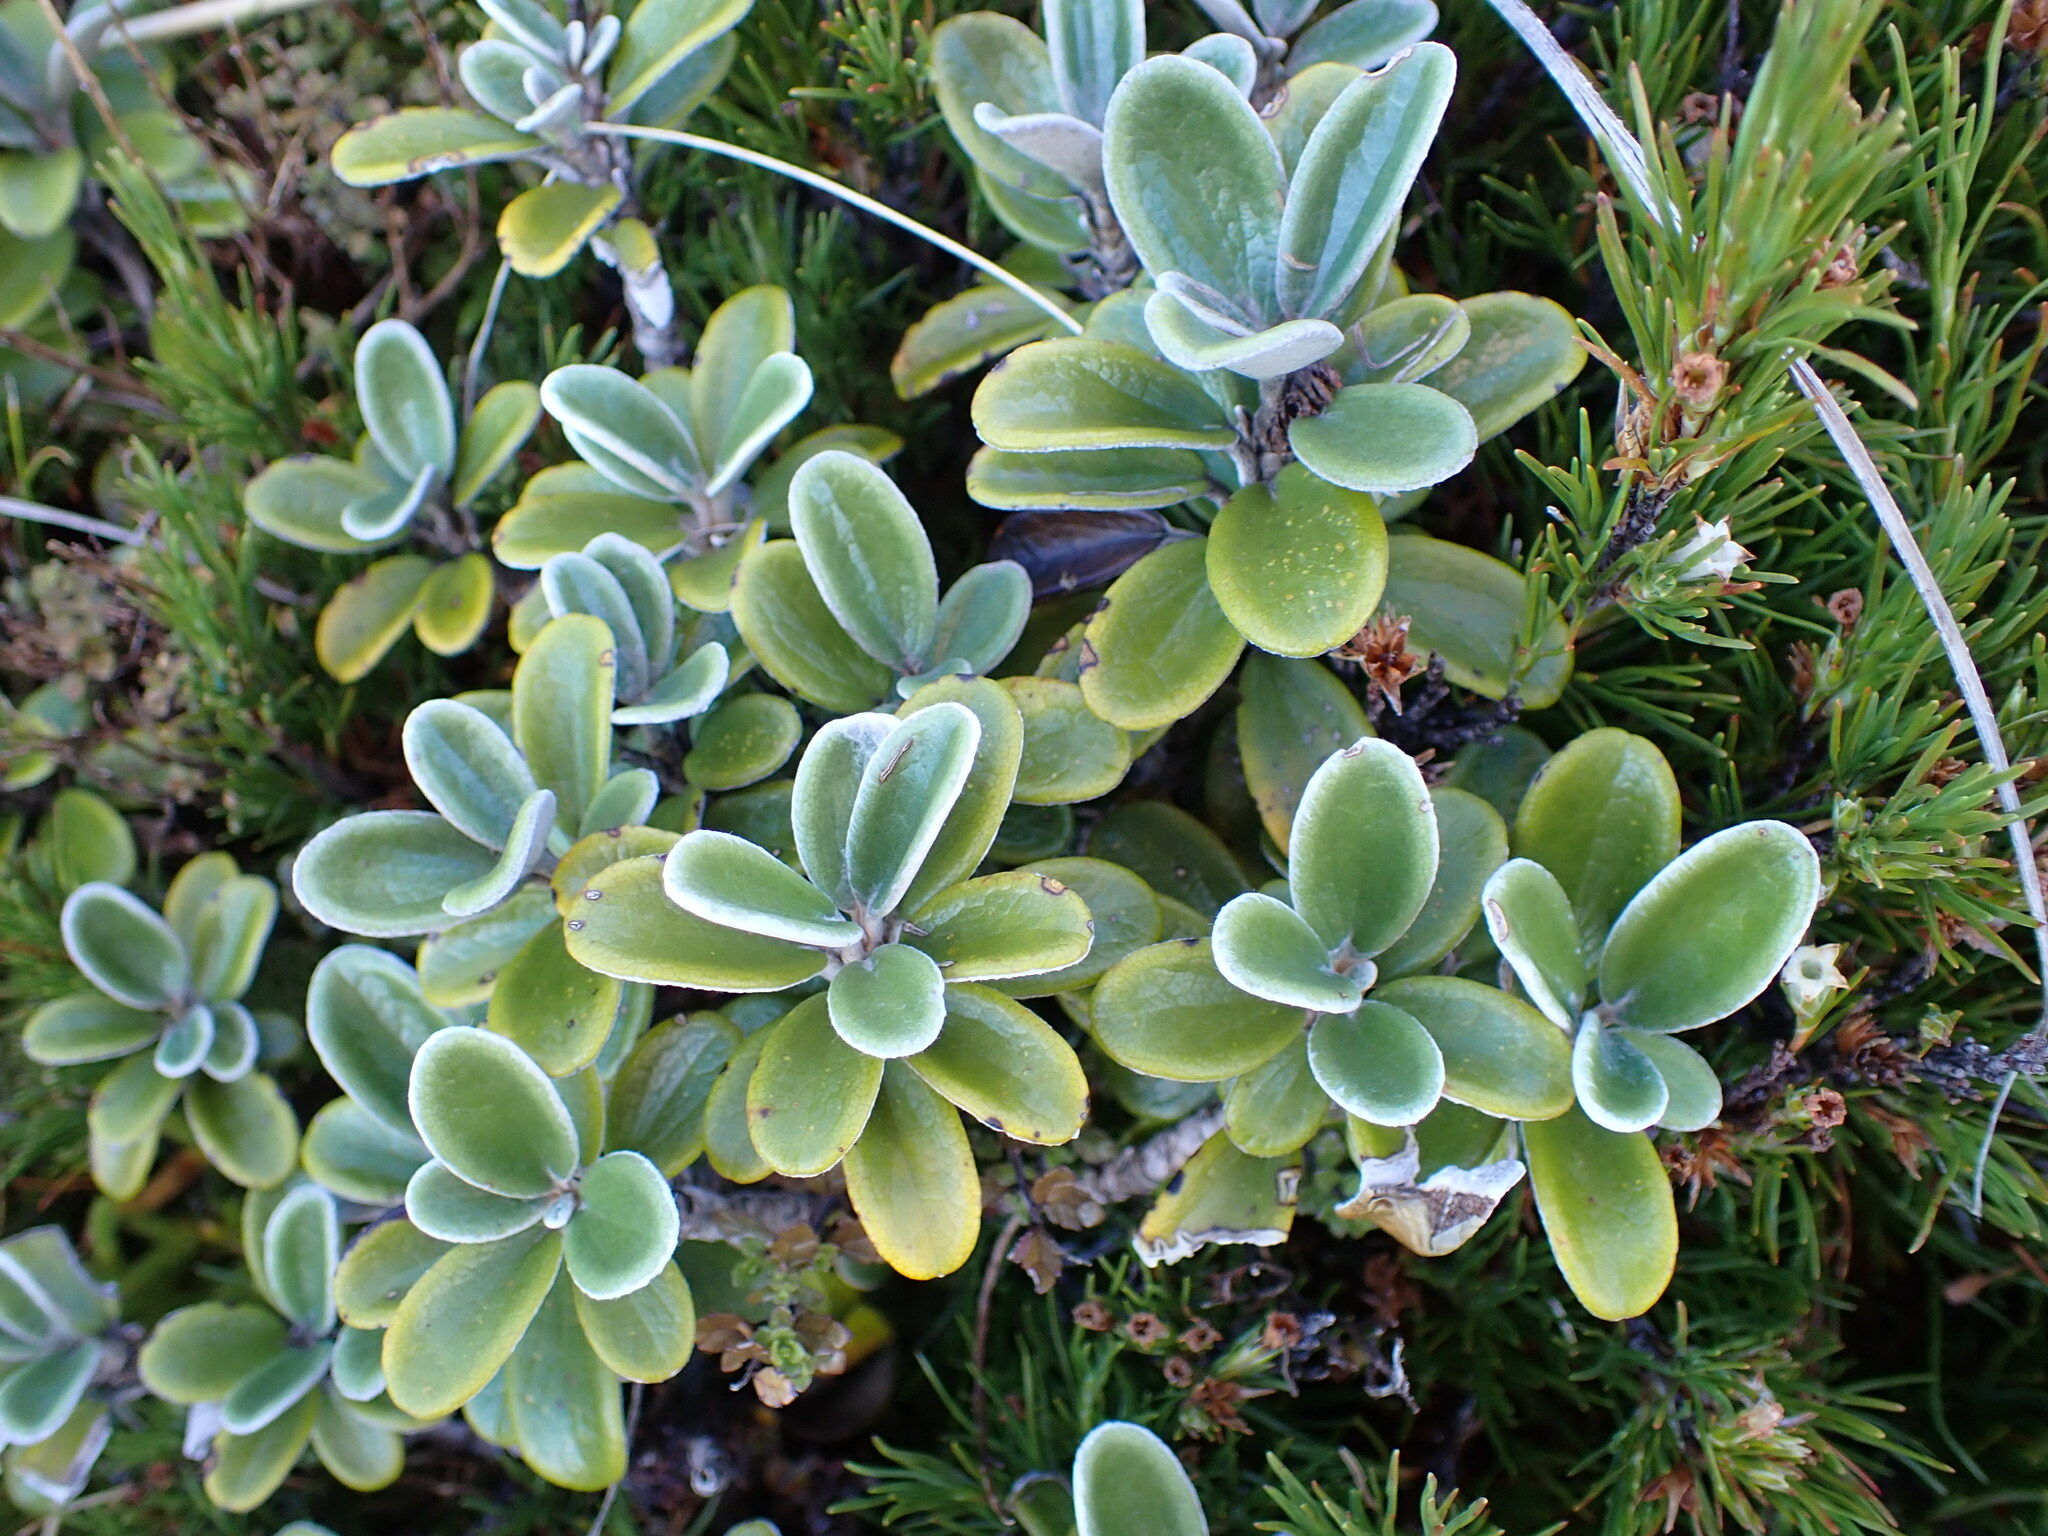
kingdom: Plantae
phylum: Tracheophyta
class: Magnoliopsida
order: Asterales
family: Asteraceae
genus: Brachyglottis
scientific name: Brachyglottis bidwillii
